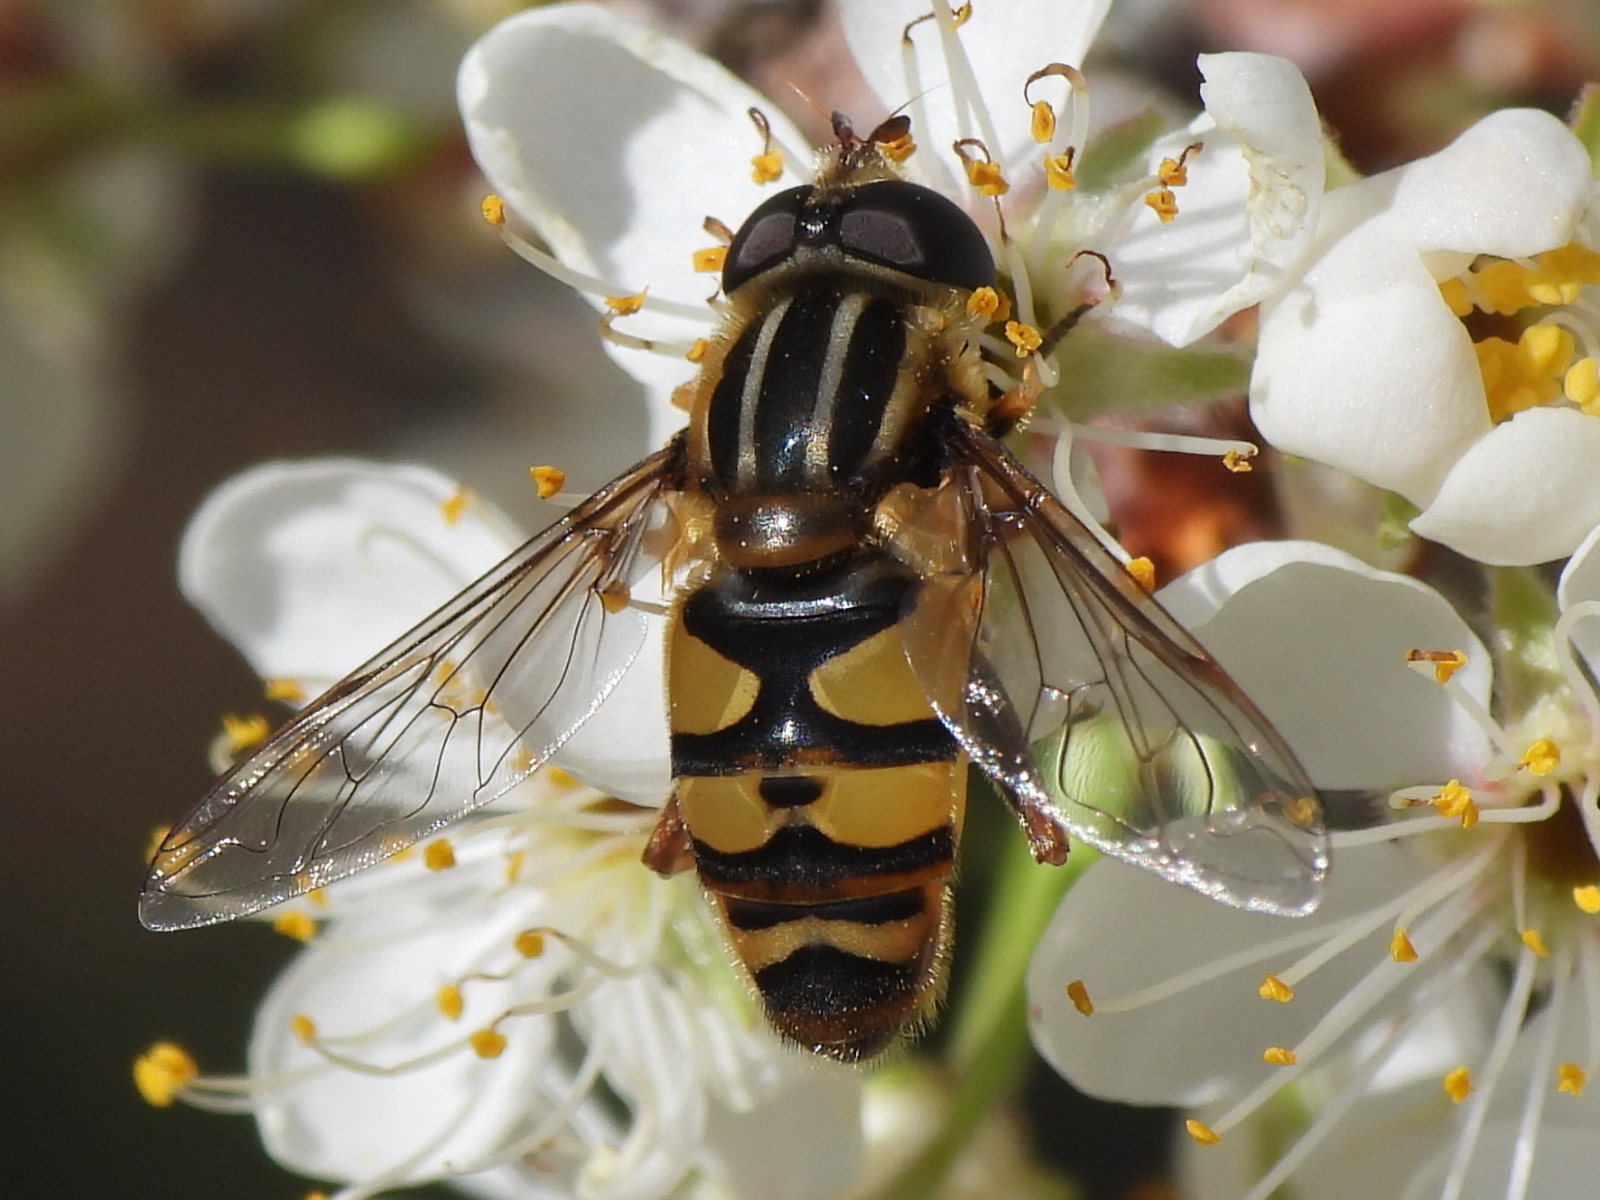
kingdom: Animalia
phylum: Arthropoda
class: Insecta
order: Diptera
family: Syrphidae
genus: Helophilus
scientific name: Helophilus fasciatus
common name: Narrow-headed marsh fly
